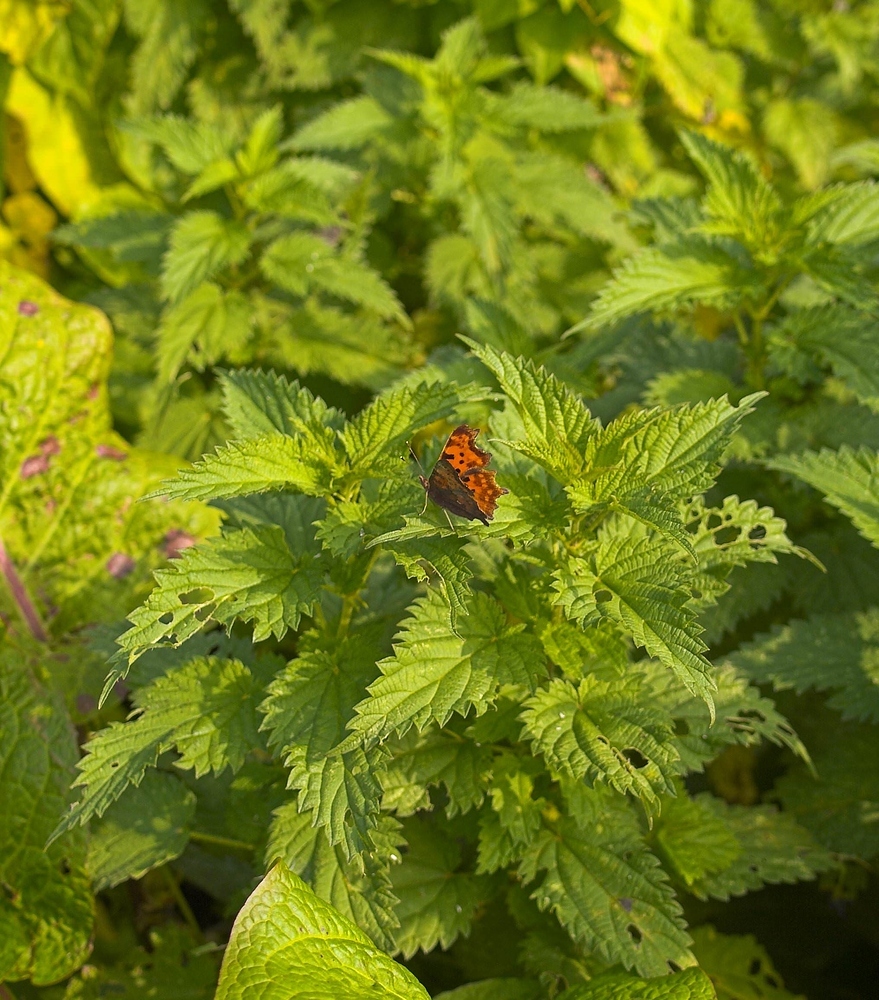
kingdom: Animalia
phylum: Arthropoda
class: Insecta
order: Lepidoptera
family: Nymphalidae
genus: Polygonia
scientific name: Polygonia c-album
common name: Comma
